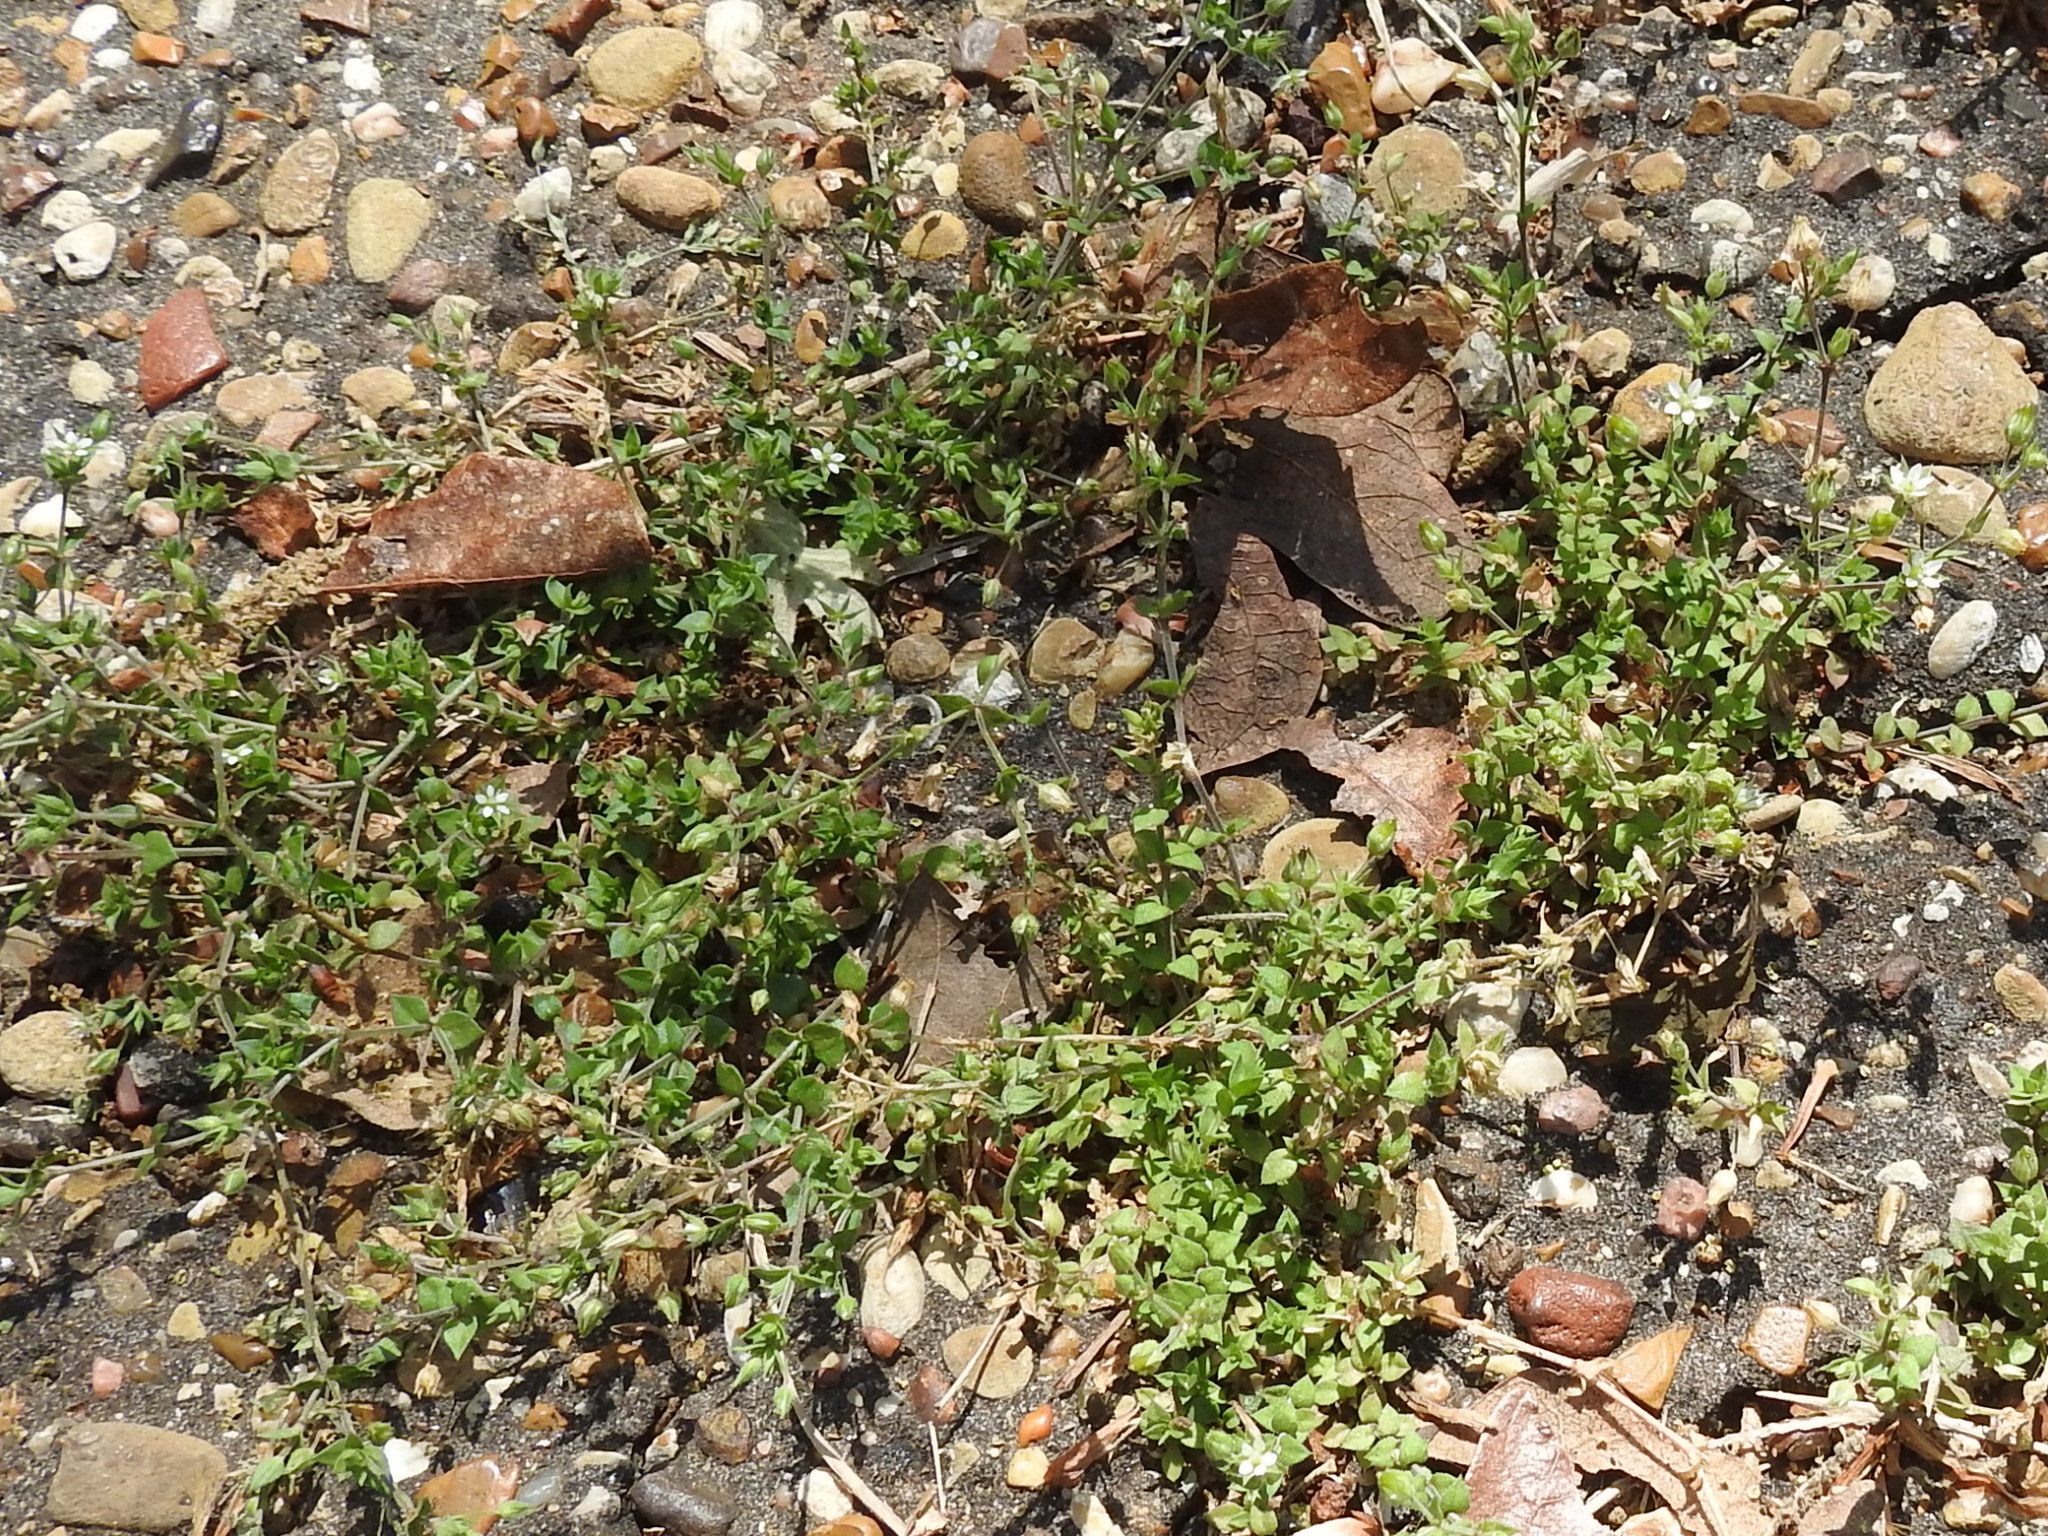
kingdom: Plantae
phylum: Tracheophyta
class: Magnoliopsida
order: Caryophyllales
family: Caryophyllaceae
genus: Arenaria
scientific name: Arenaria serpyllifolia
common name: Thyme-leaved sandwort
